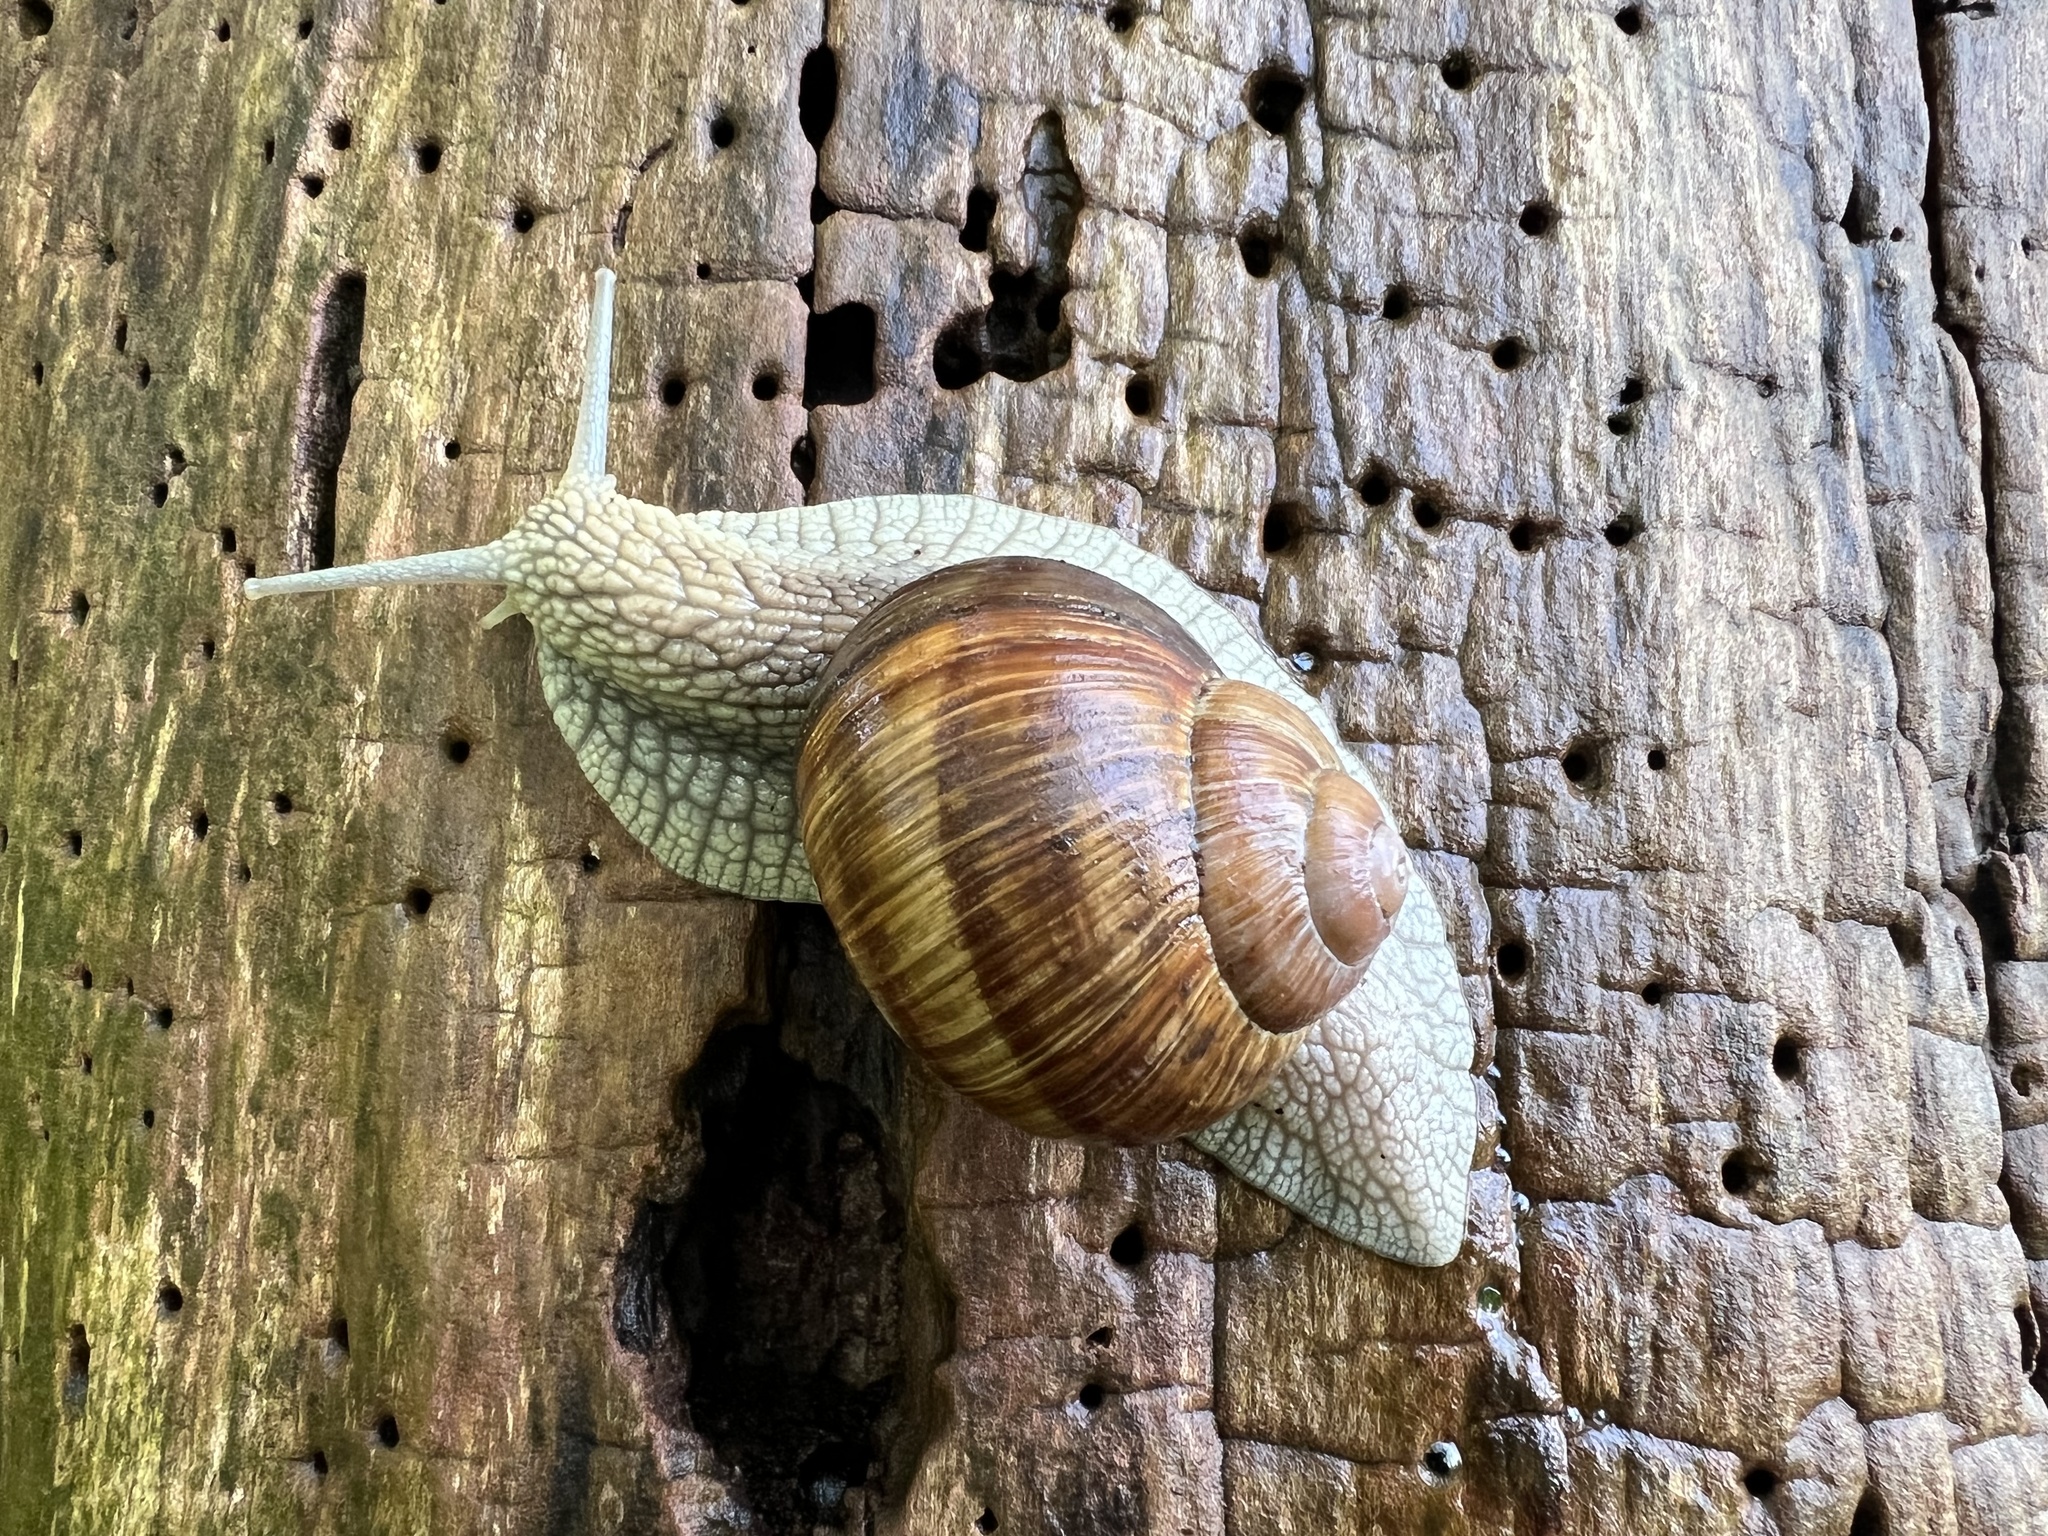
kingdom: Animalia
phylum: Mollusca
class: Gastropoda
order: Stylommatophora
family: Helicidae
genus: Helix
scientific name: Helix pomatia
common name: Roman snail
